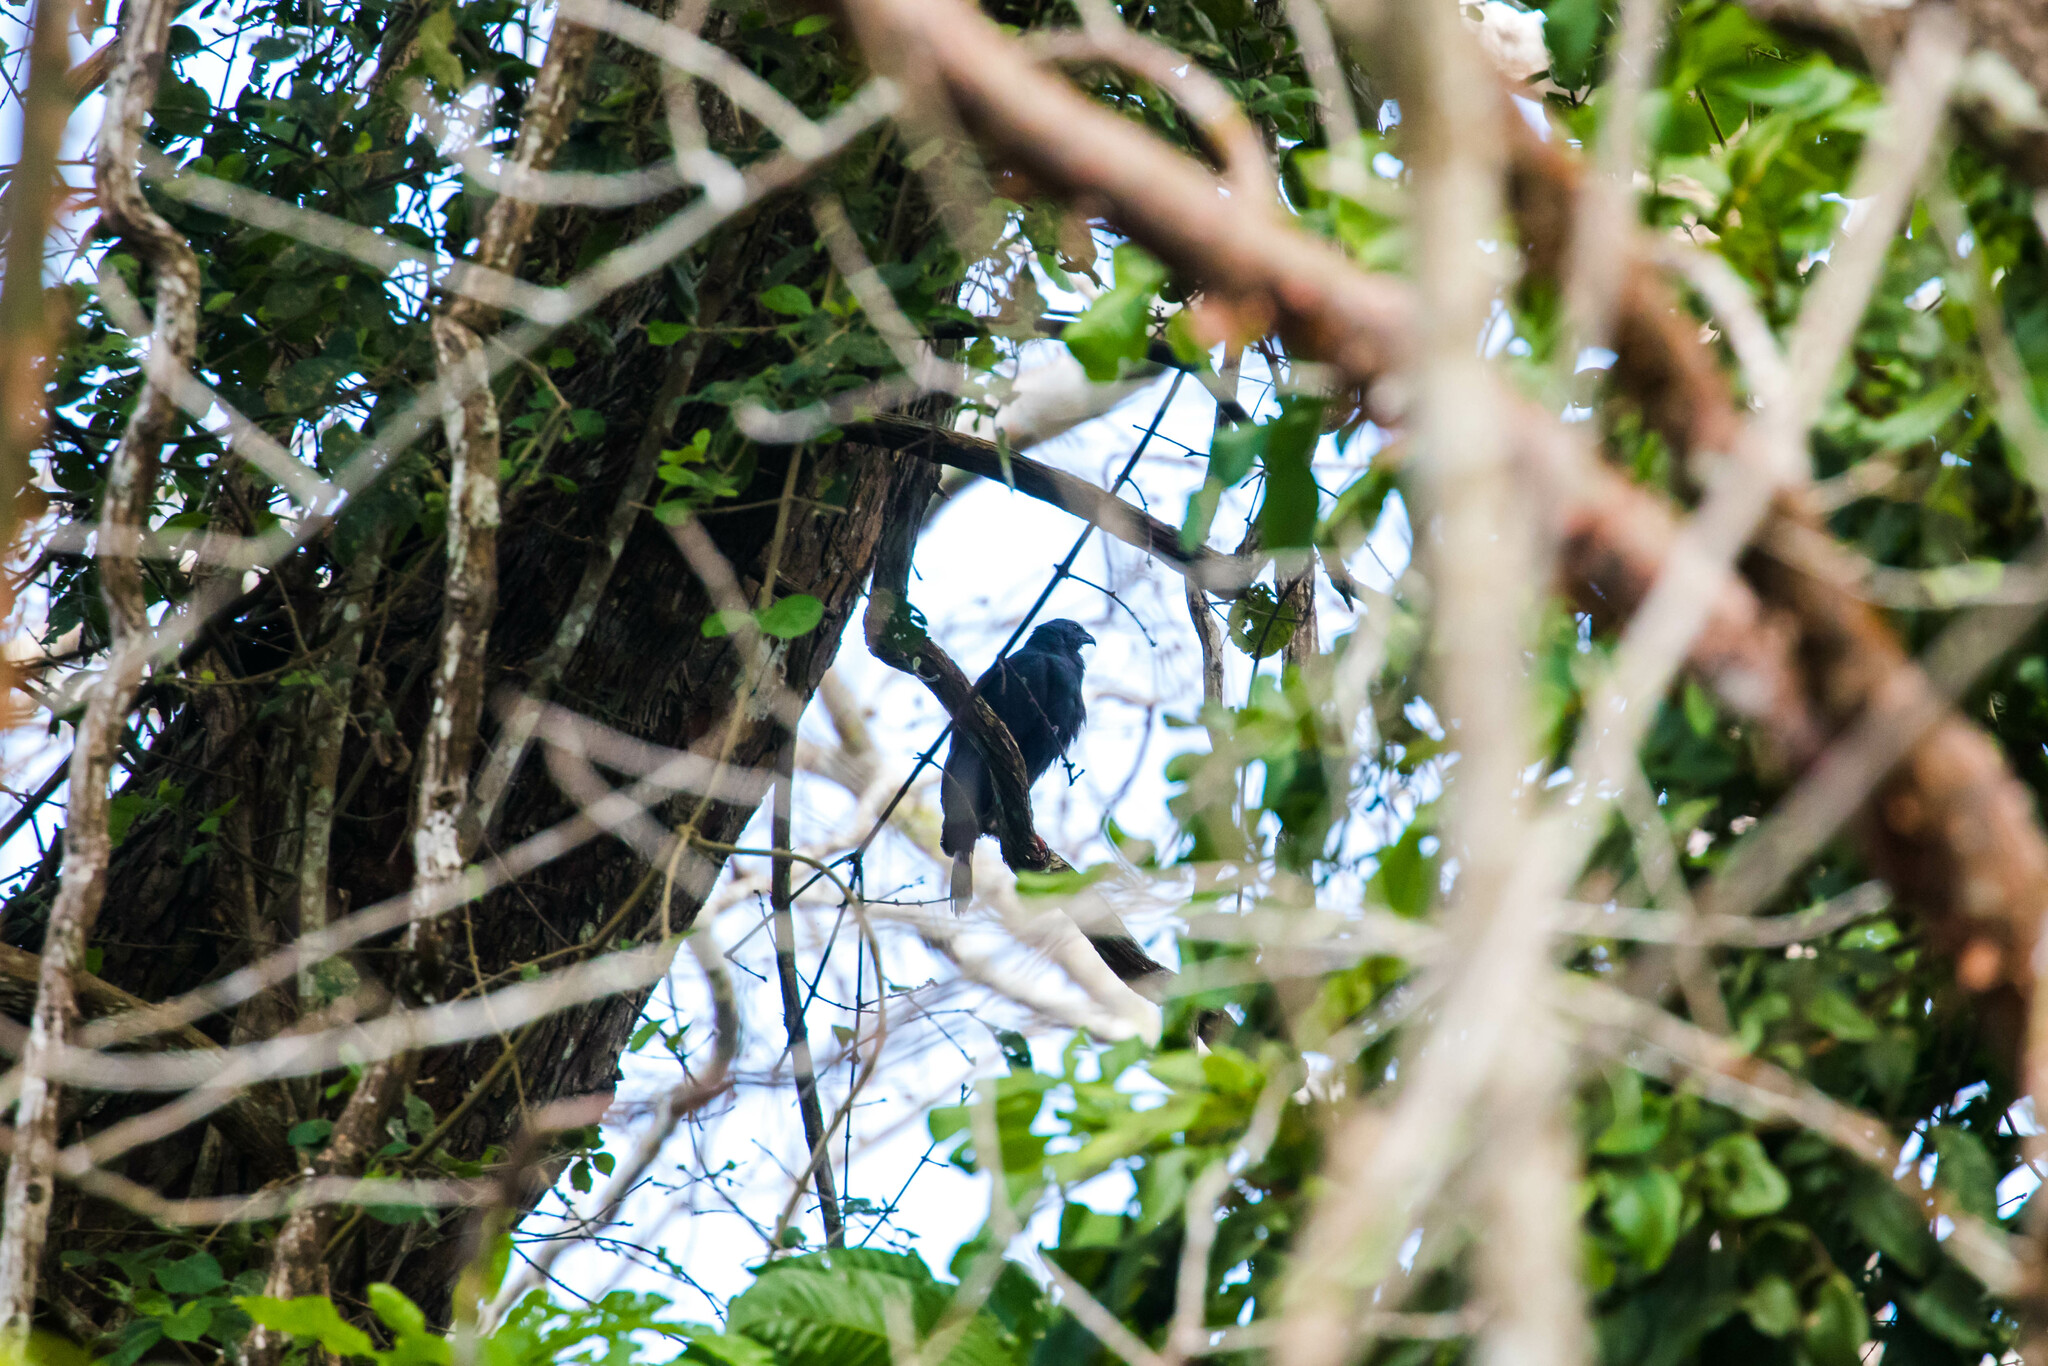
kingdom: Animalia
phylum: Chordata
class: Aves
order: Accipitriformes
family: Accipitridae
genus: Geranospiza
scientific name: Geranospiza caerulescens
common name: Crane hawk
